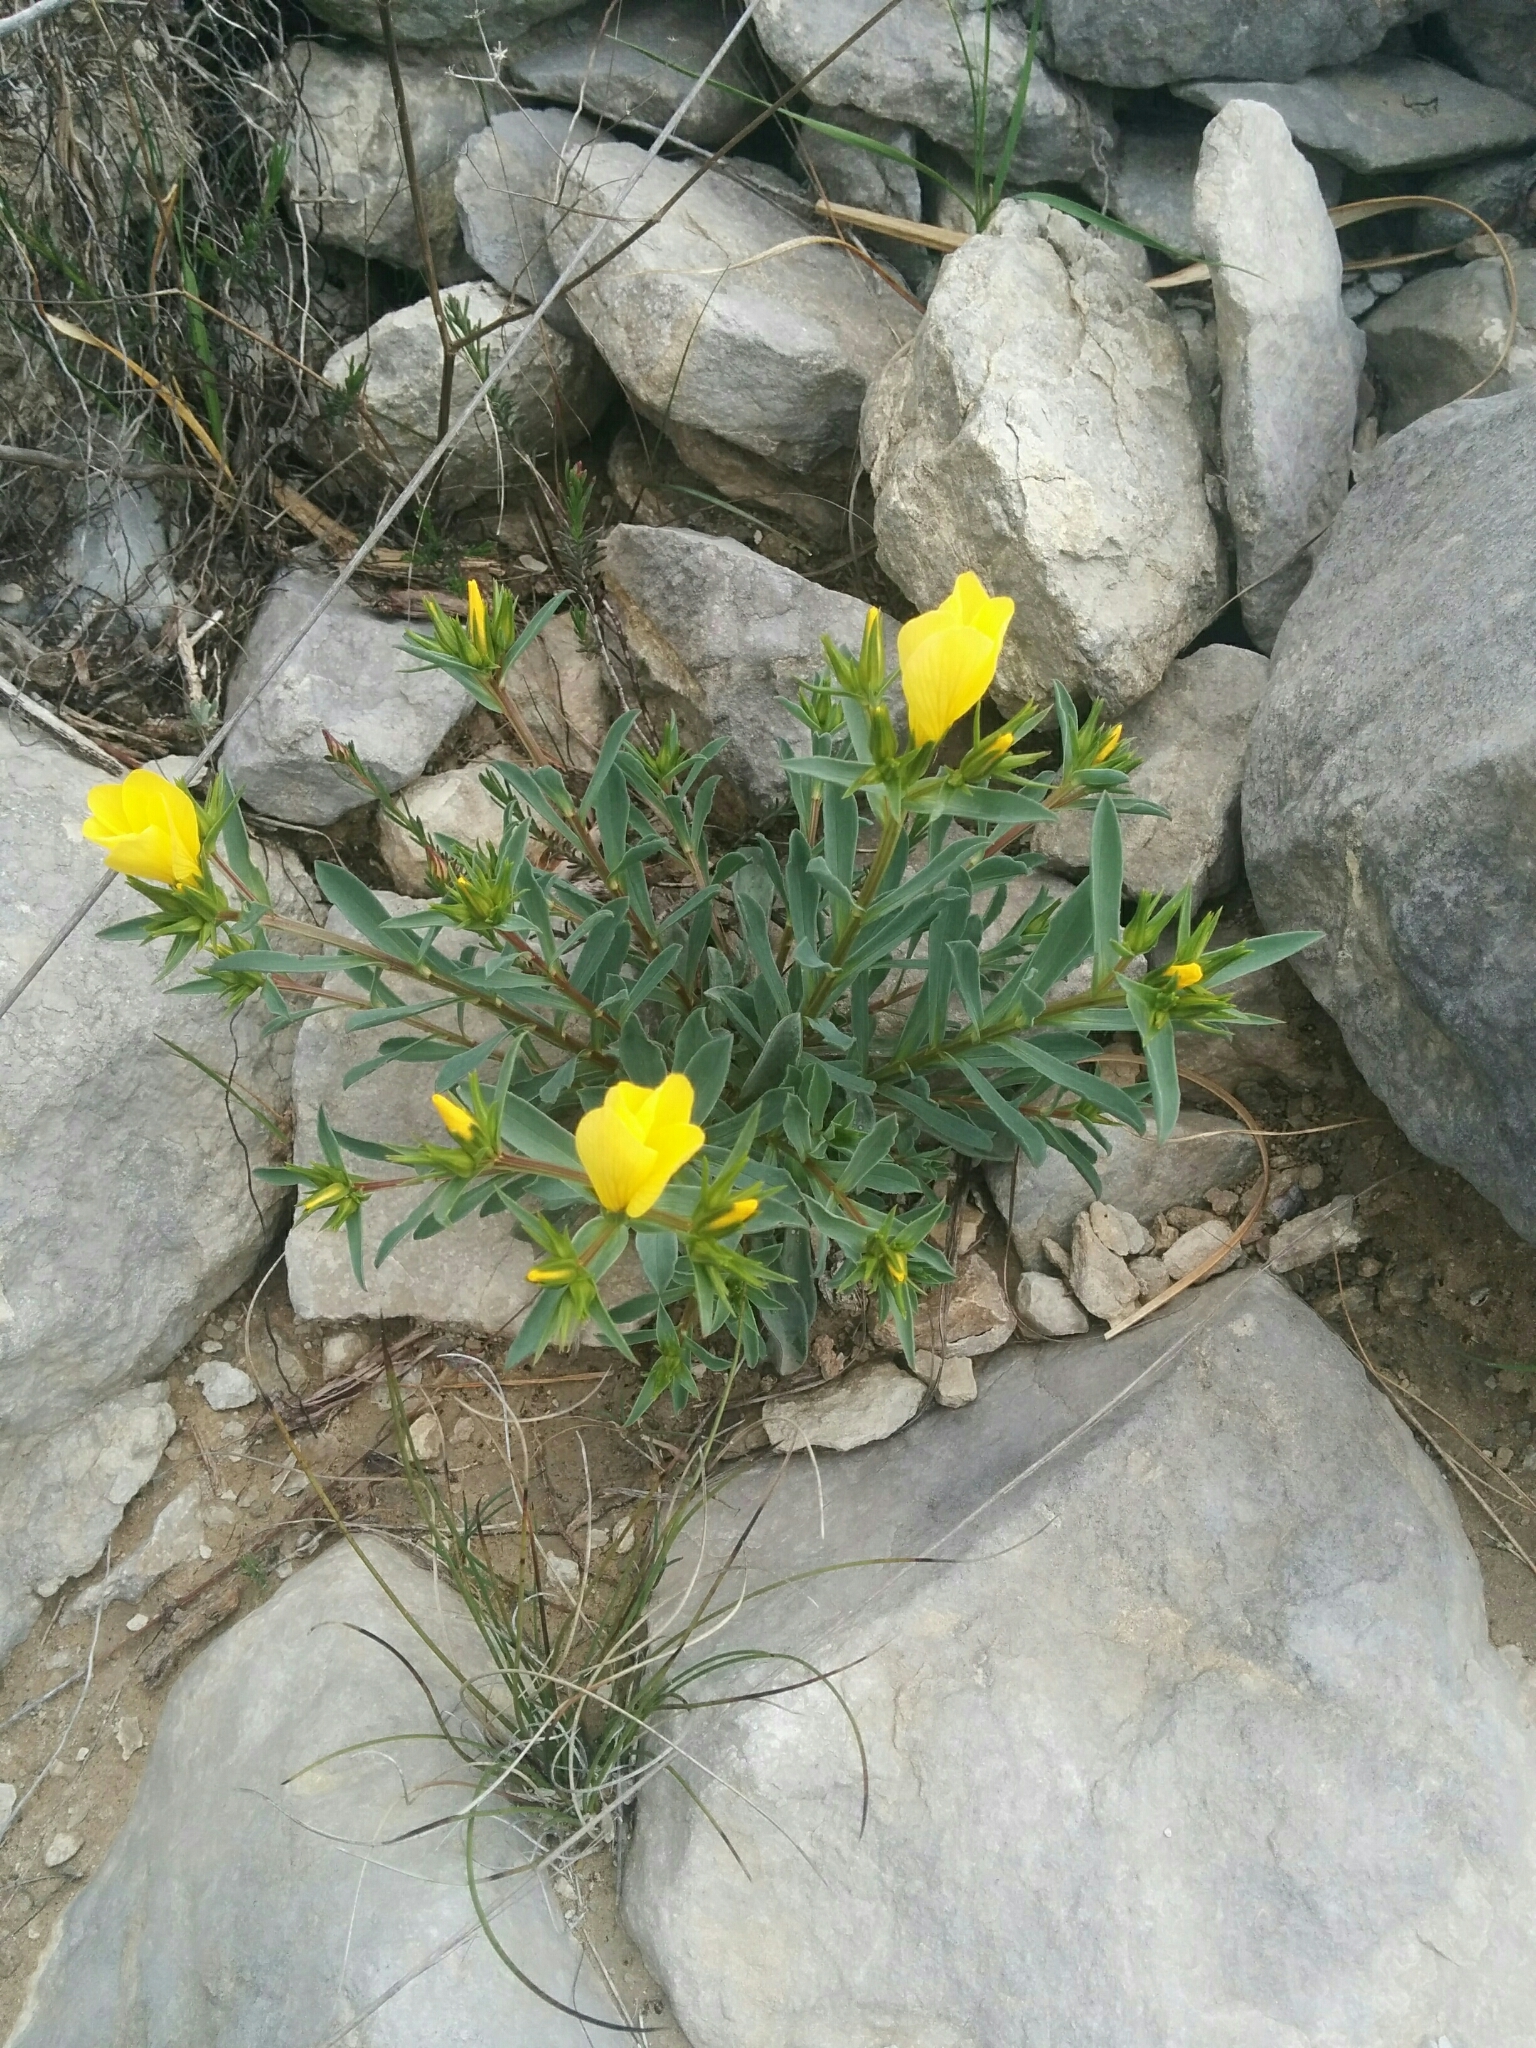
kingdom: Plantae
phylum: Tracheophyta
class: Magnoliopsida
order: Malpighiales
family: Linaceae
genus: Linum
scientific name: Linum campanulatum
